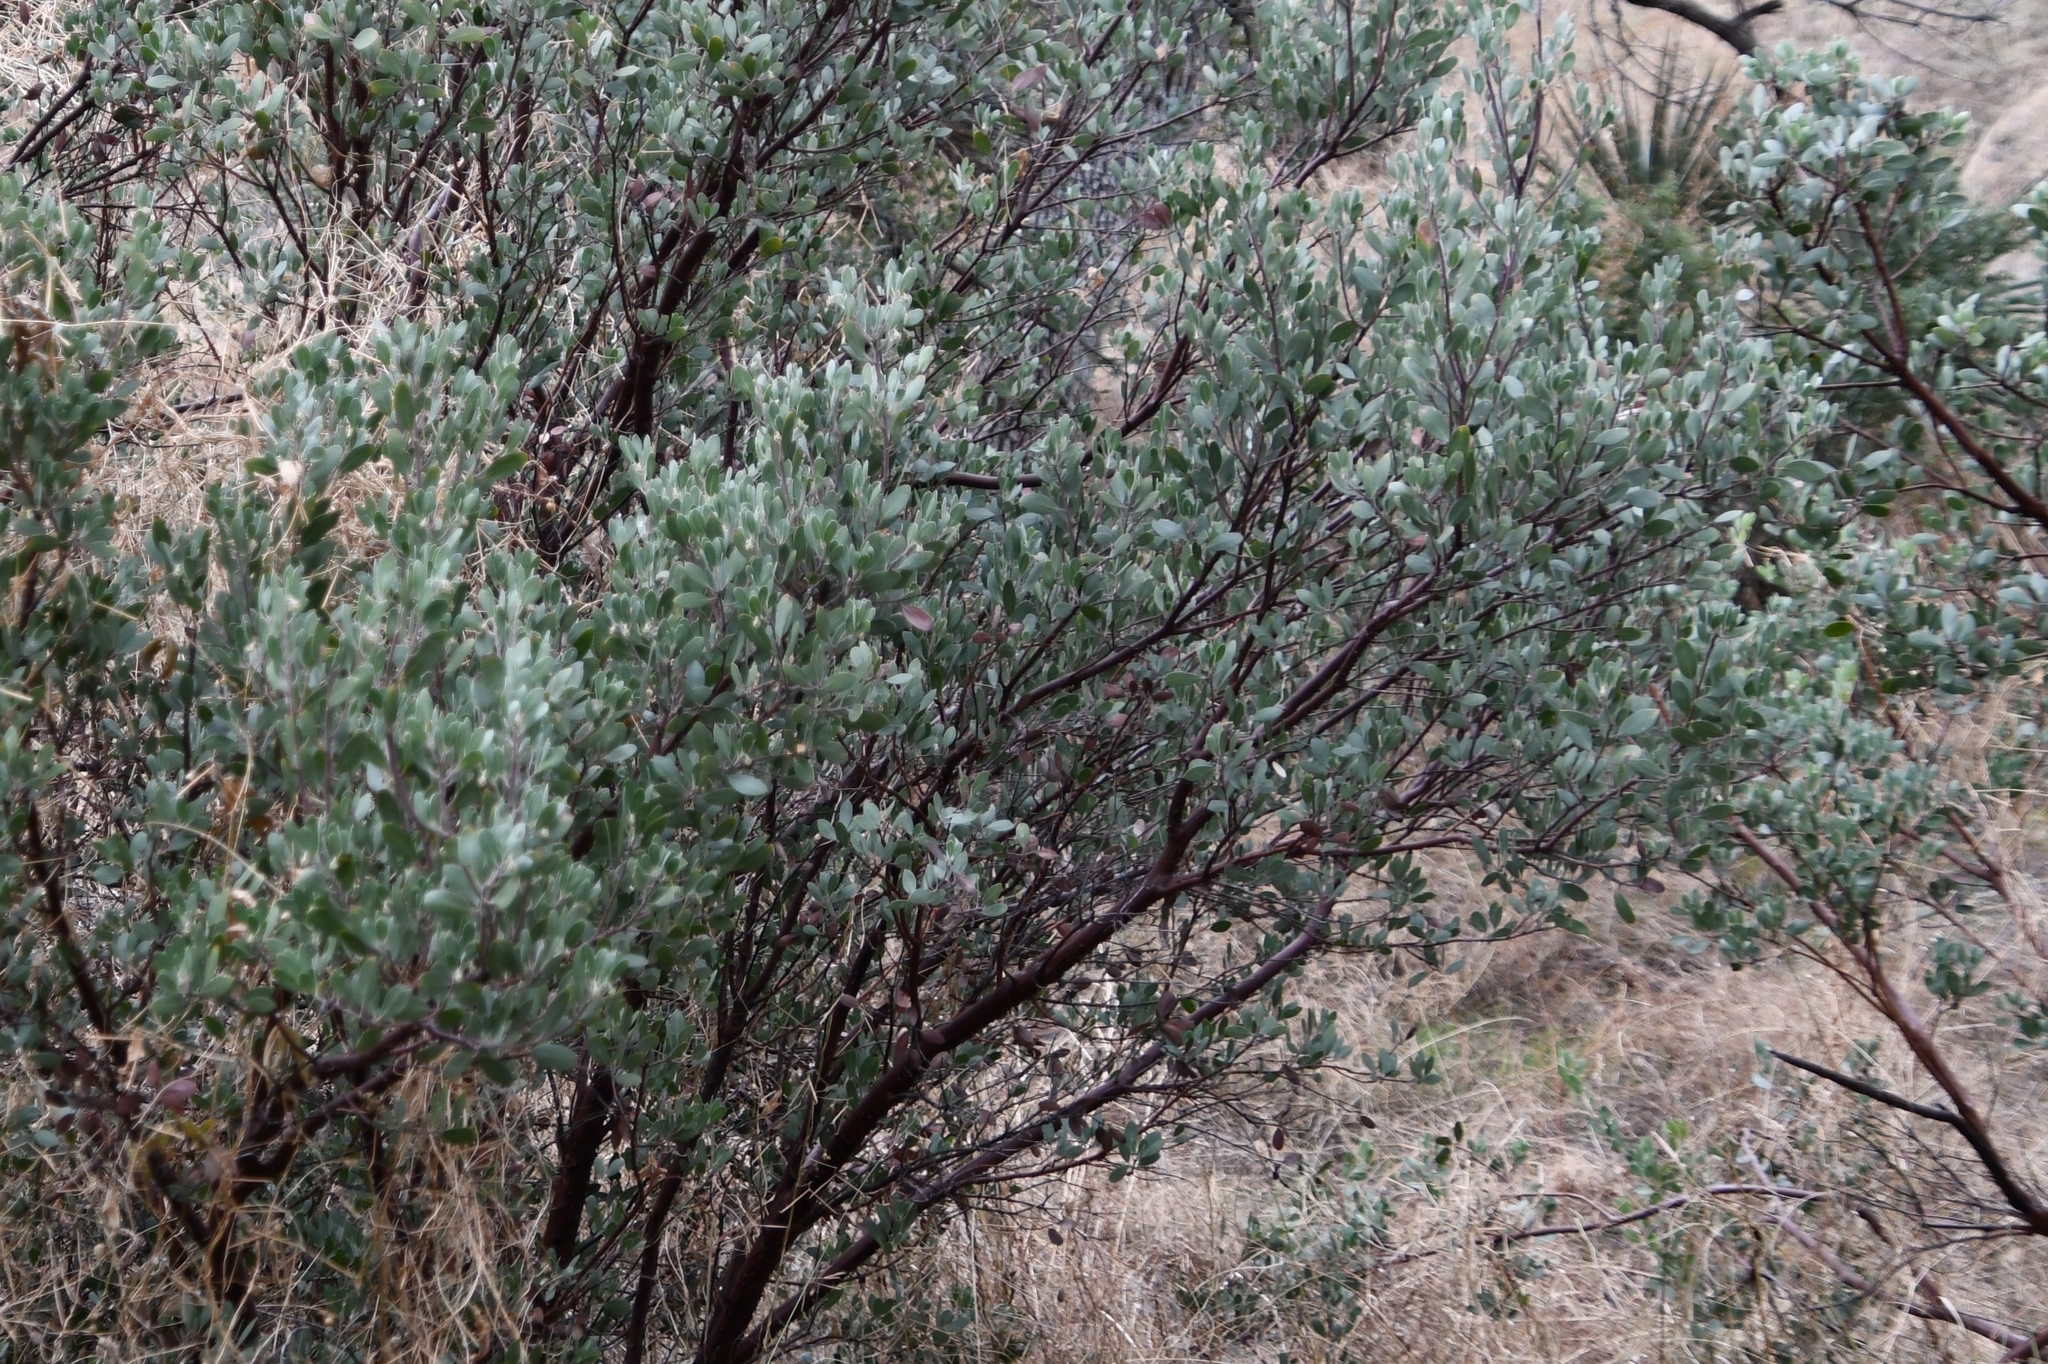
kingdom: Plantae
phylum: Tracheophyta
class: Magnoliopsida
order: Ericales
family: Ericaceae
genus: Arctostaphylos
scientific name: Arctostaphylos pungens
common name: Mexican manzanita
